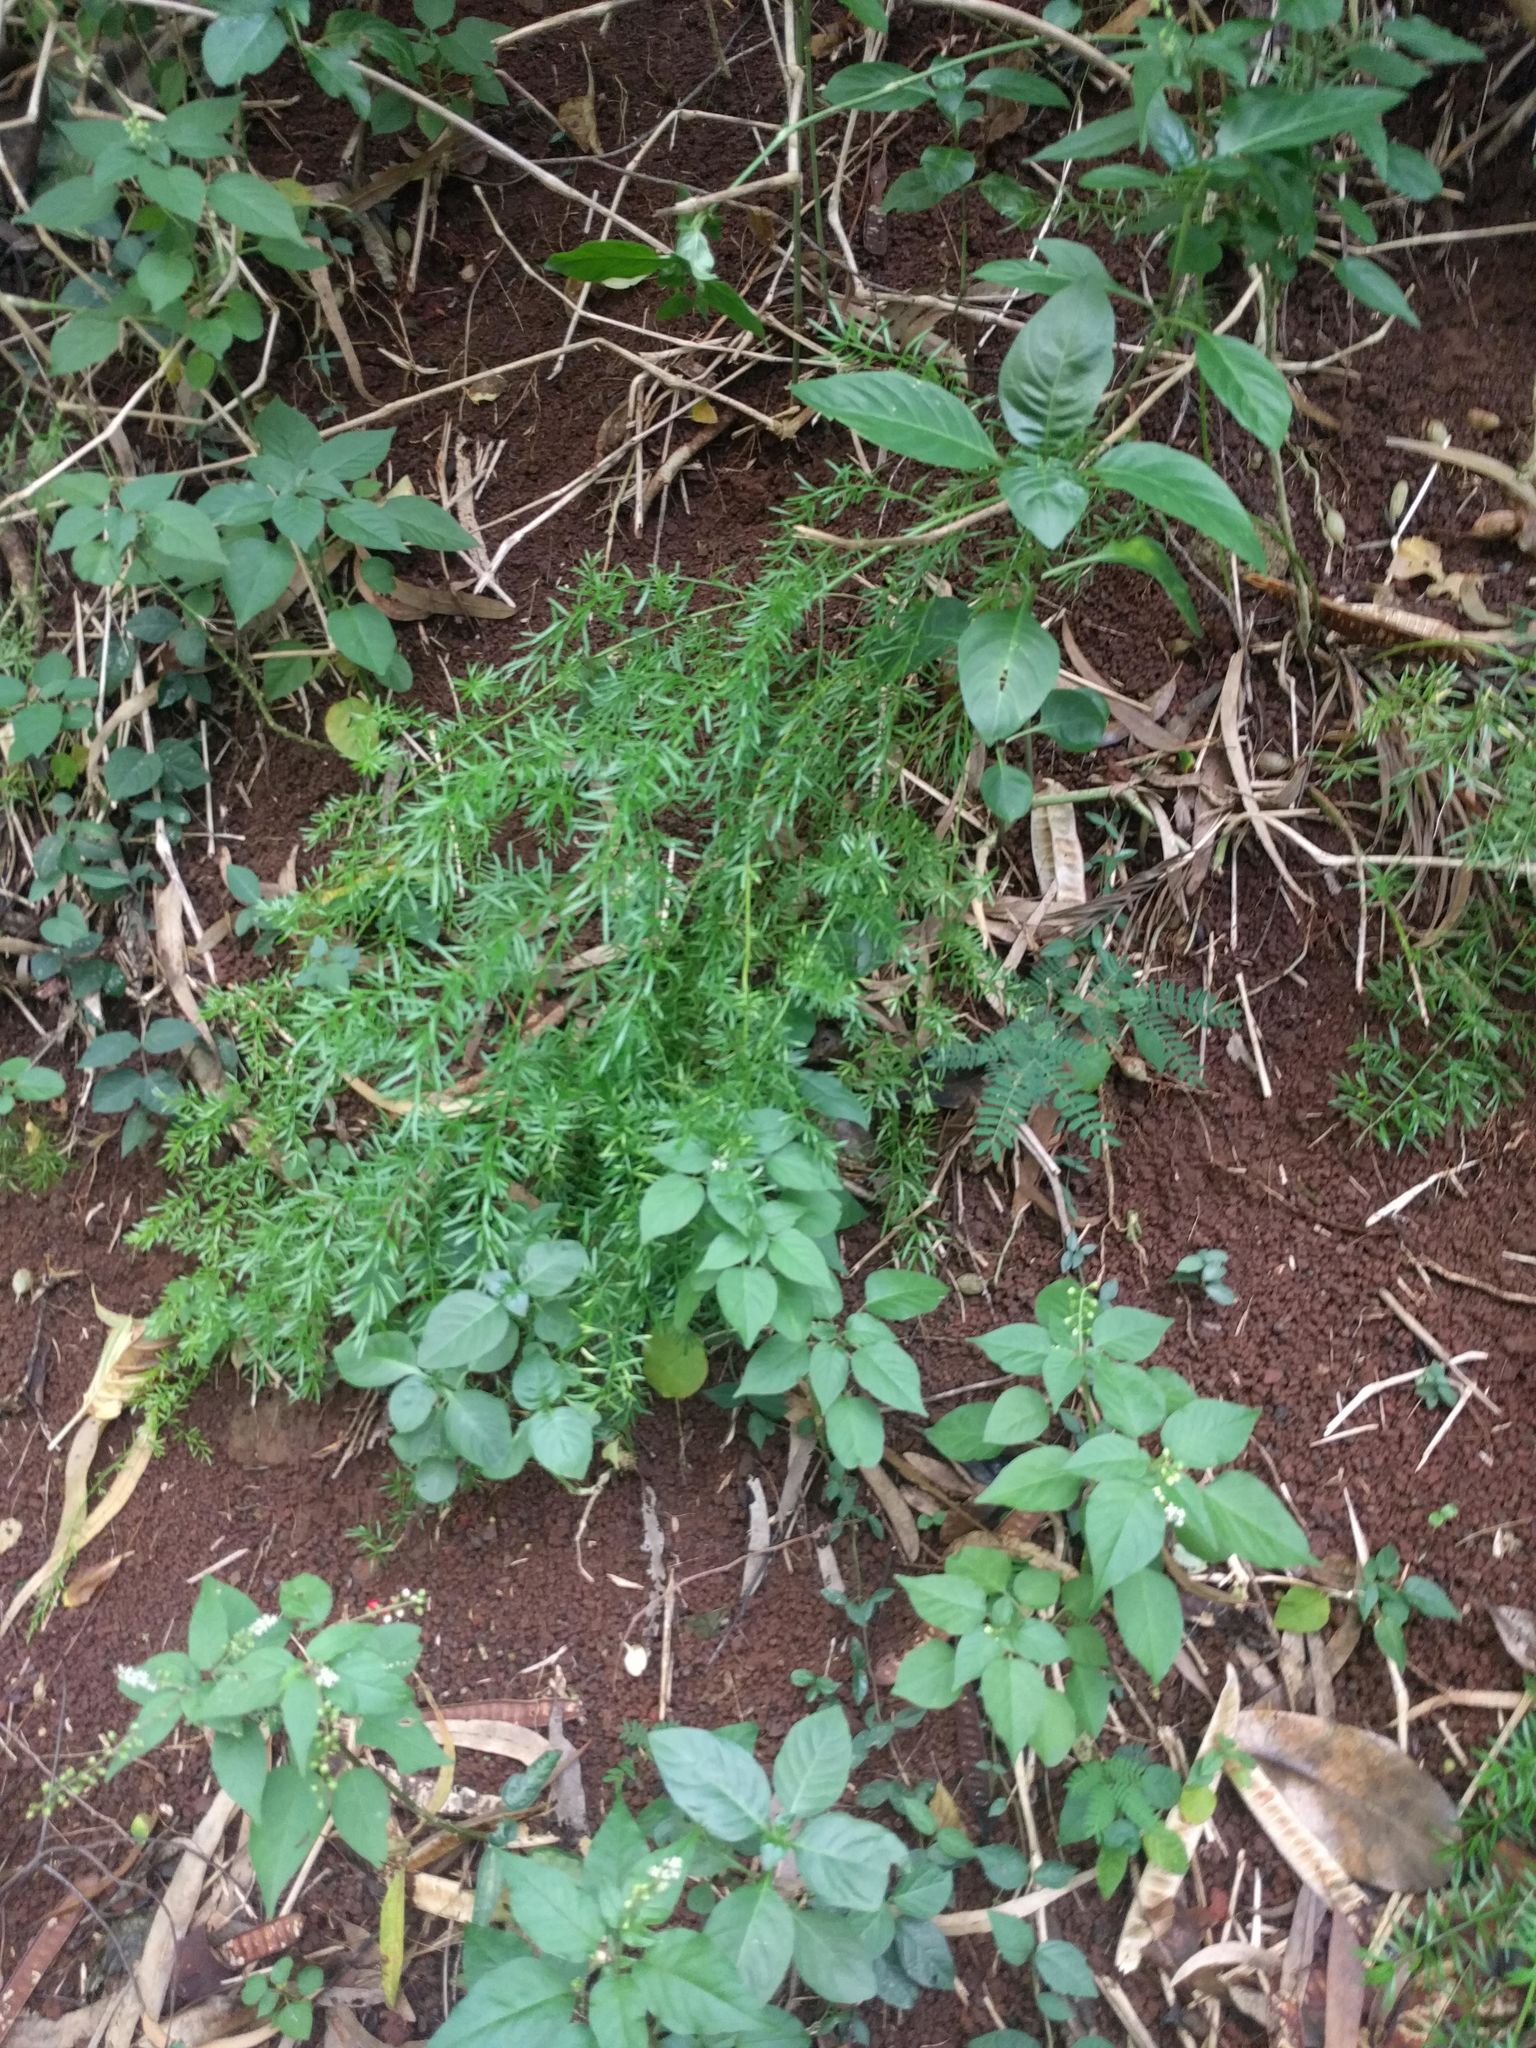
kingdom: Plantae
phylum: Tracheophyta
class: Liliopsida
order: Asparagales
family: Asparagaceae
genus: Asparagus
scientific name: Asparagus aethiopicus
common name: Sprenger's asparagus fern
